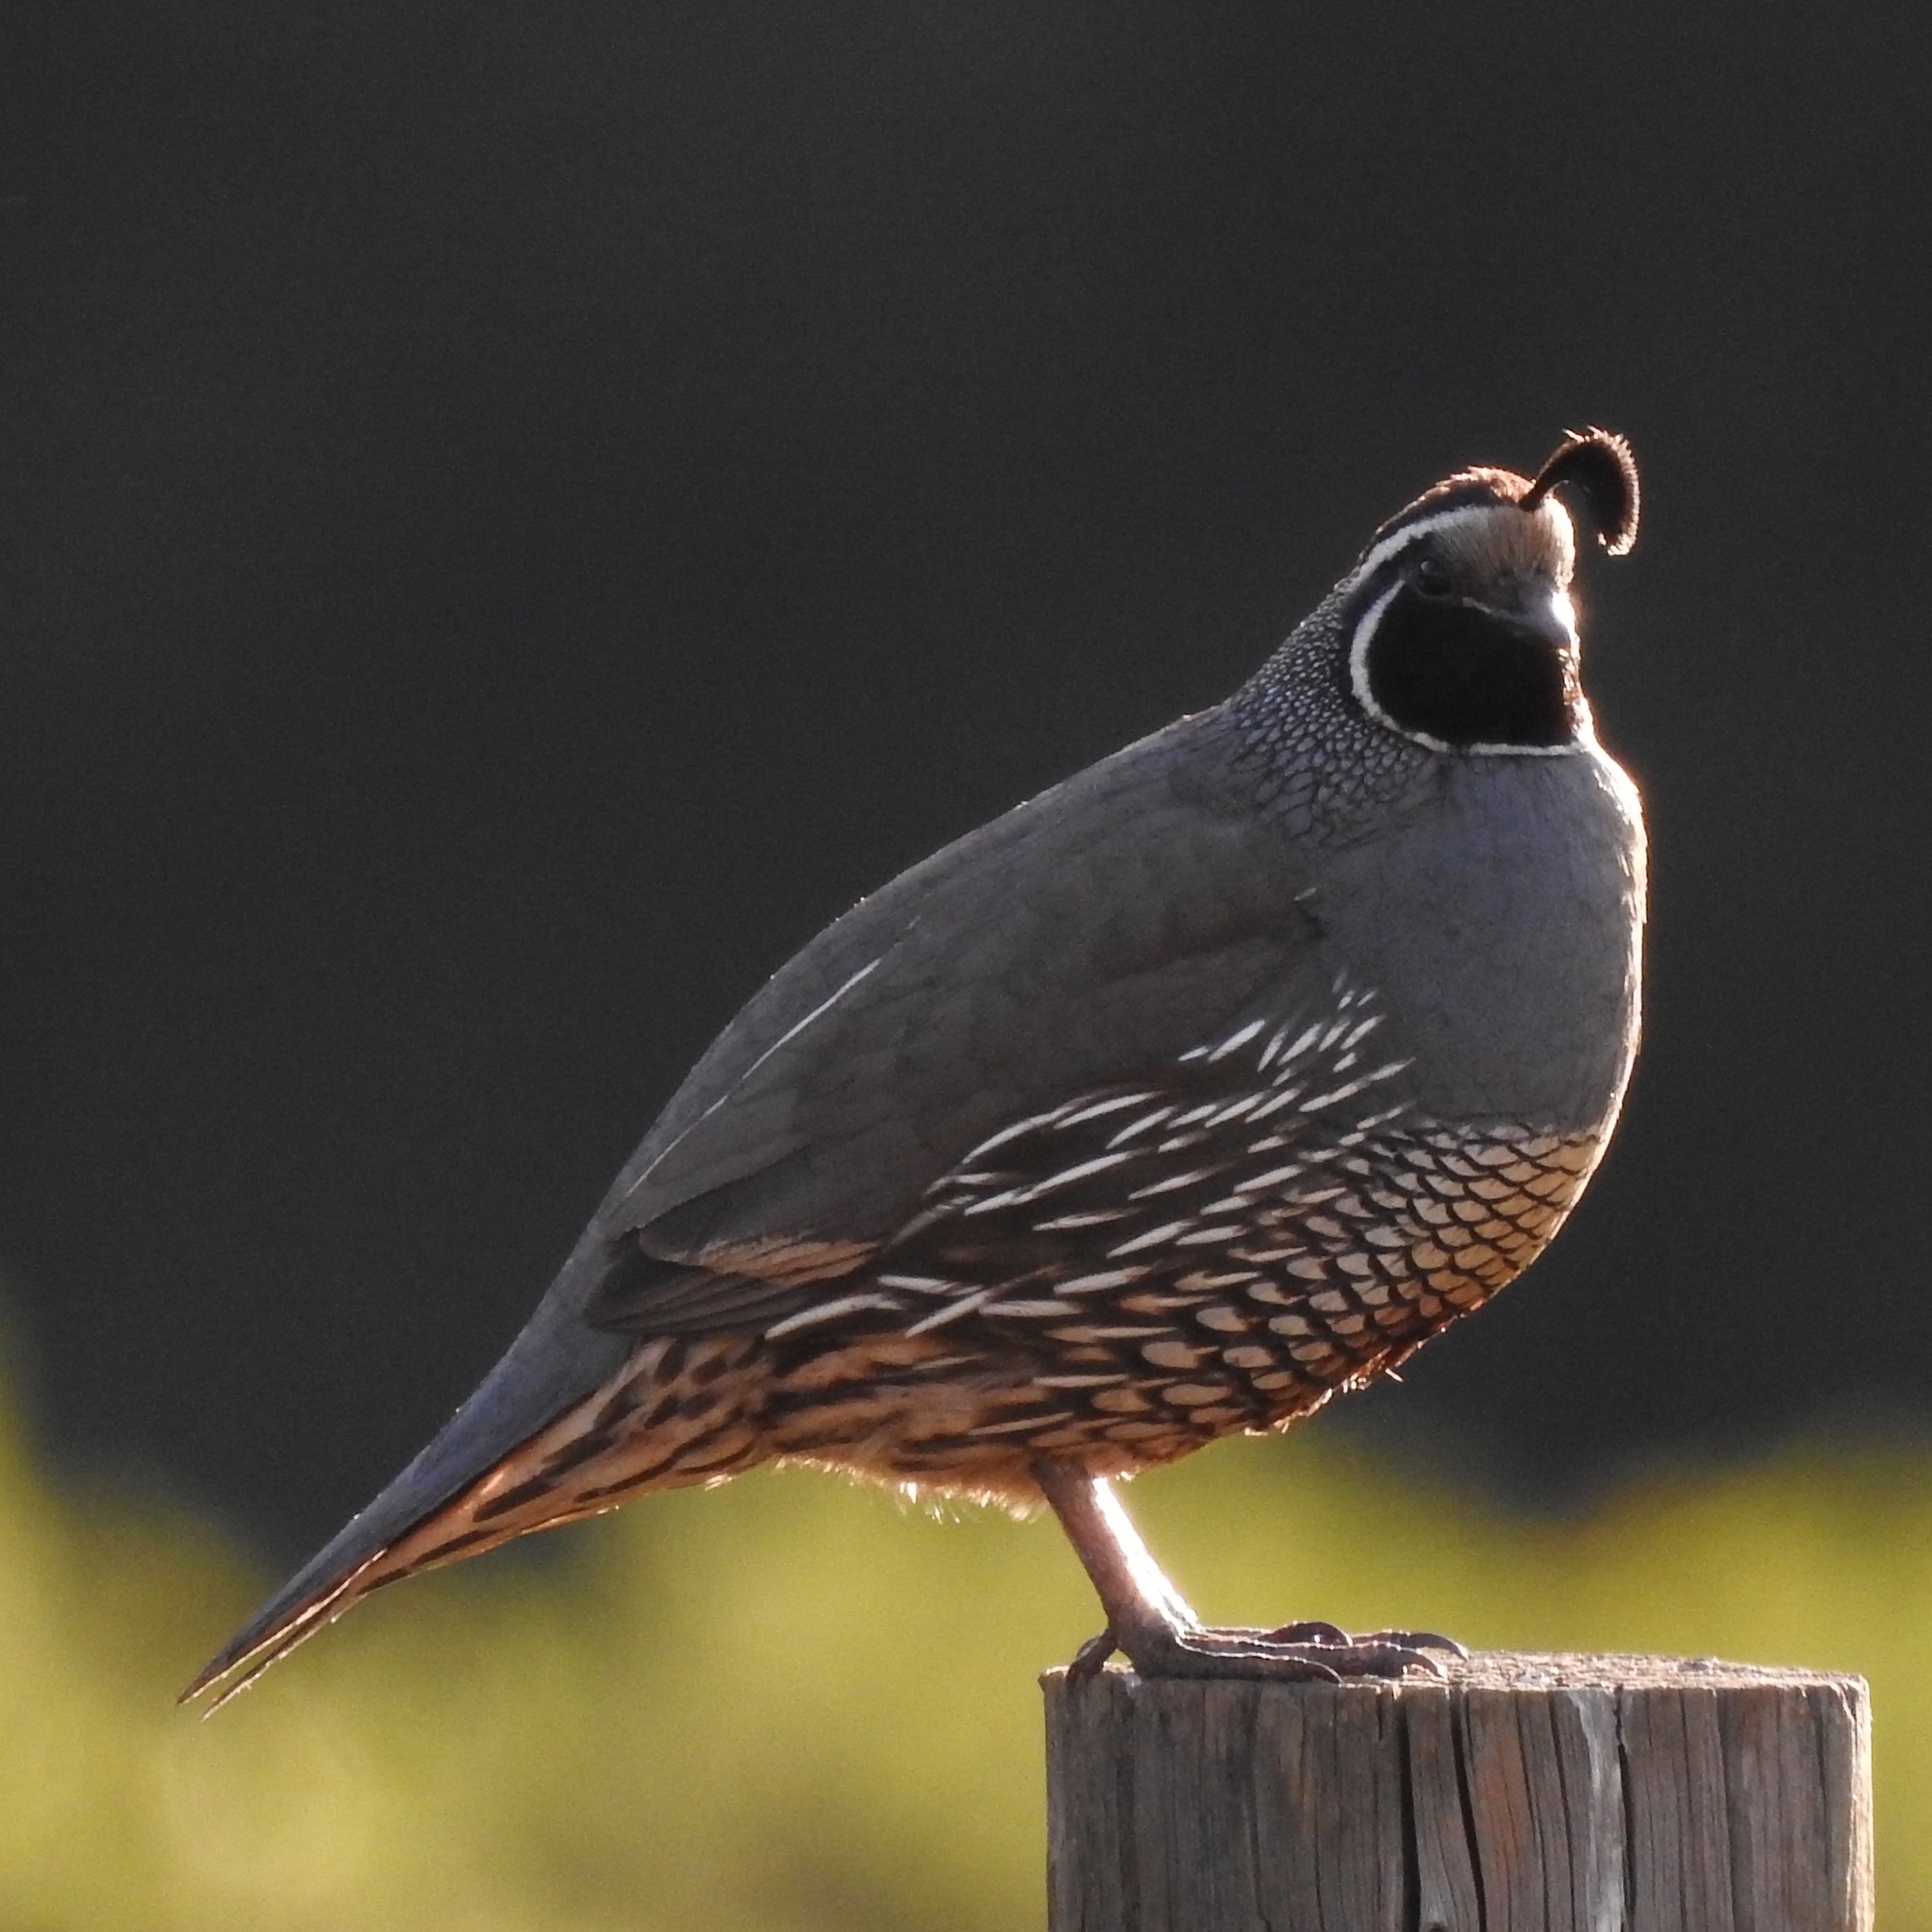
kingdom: Animalia
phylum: Chordata
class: Aves
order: Galliformes
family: Odontophoridae
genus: Callipepla
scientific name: Callipepla californica
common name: California quail
